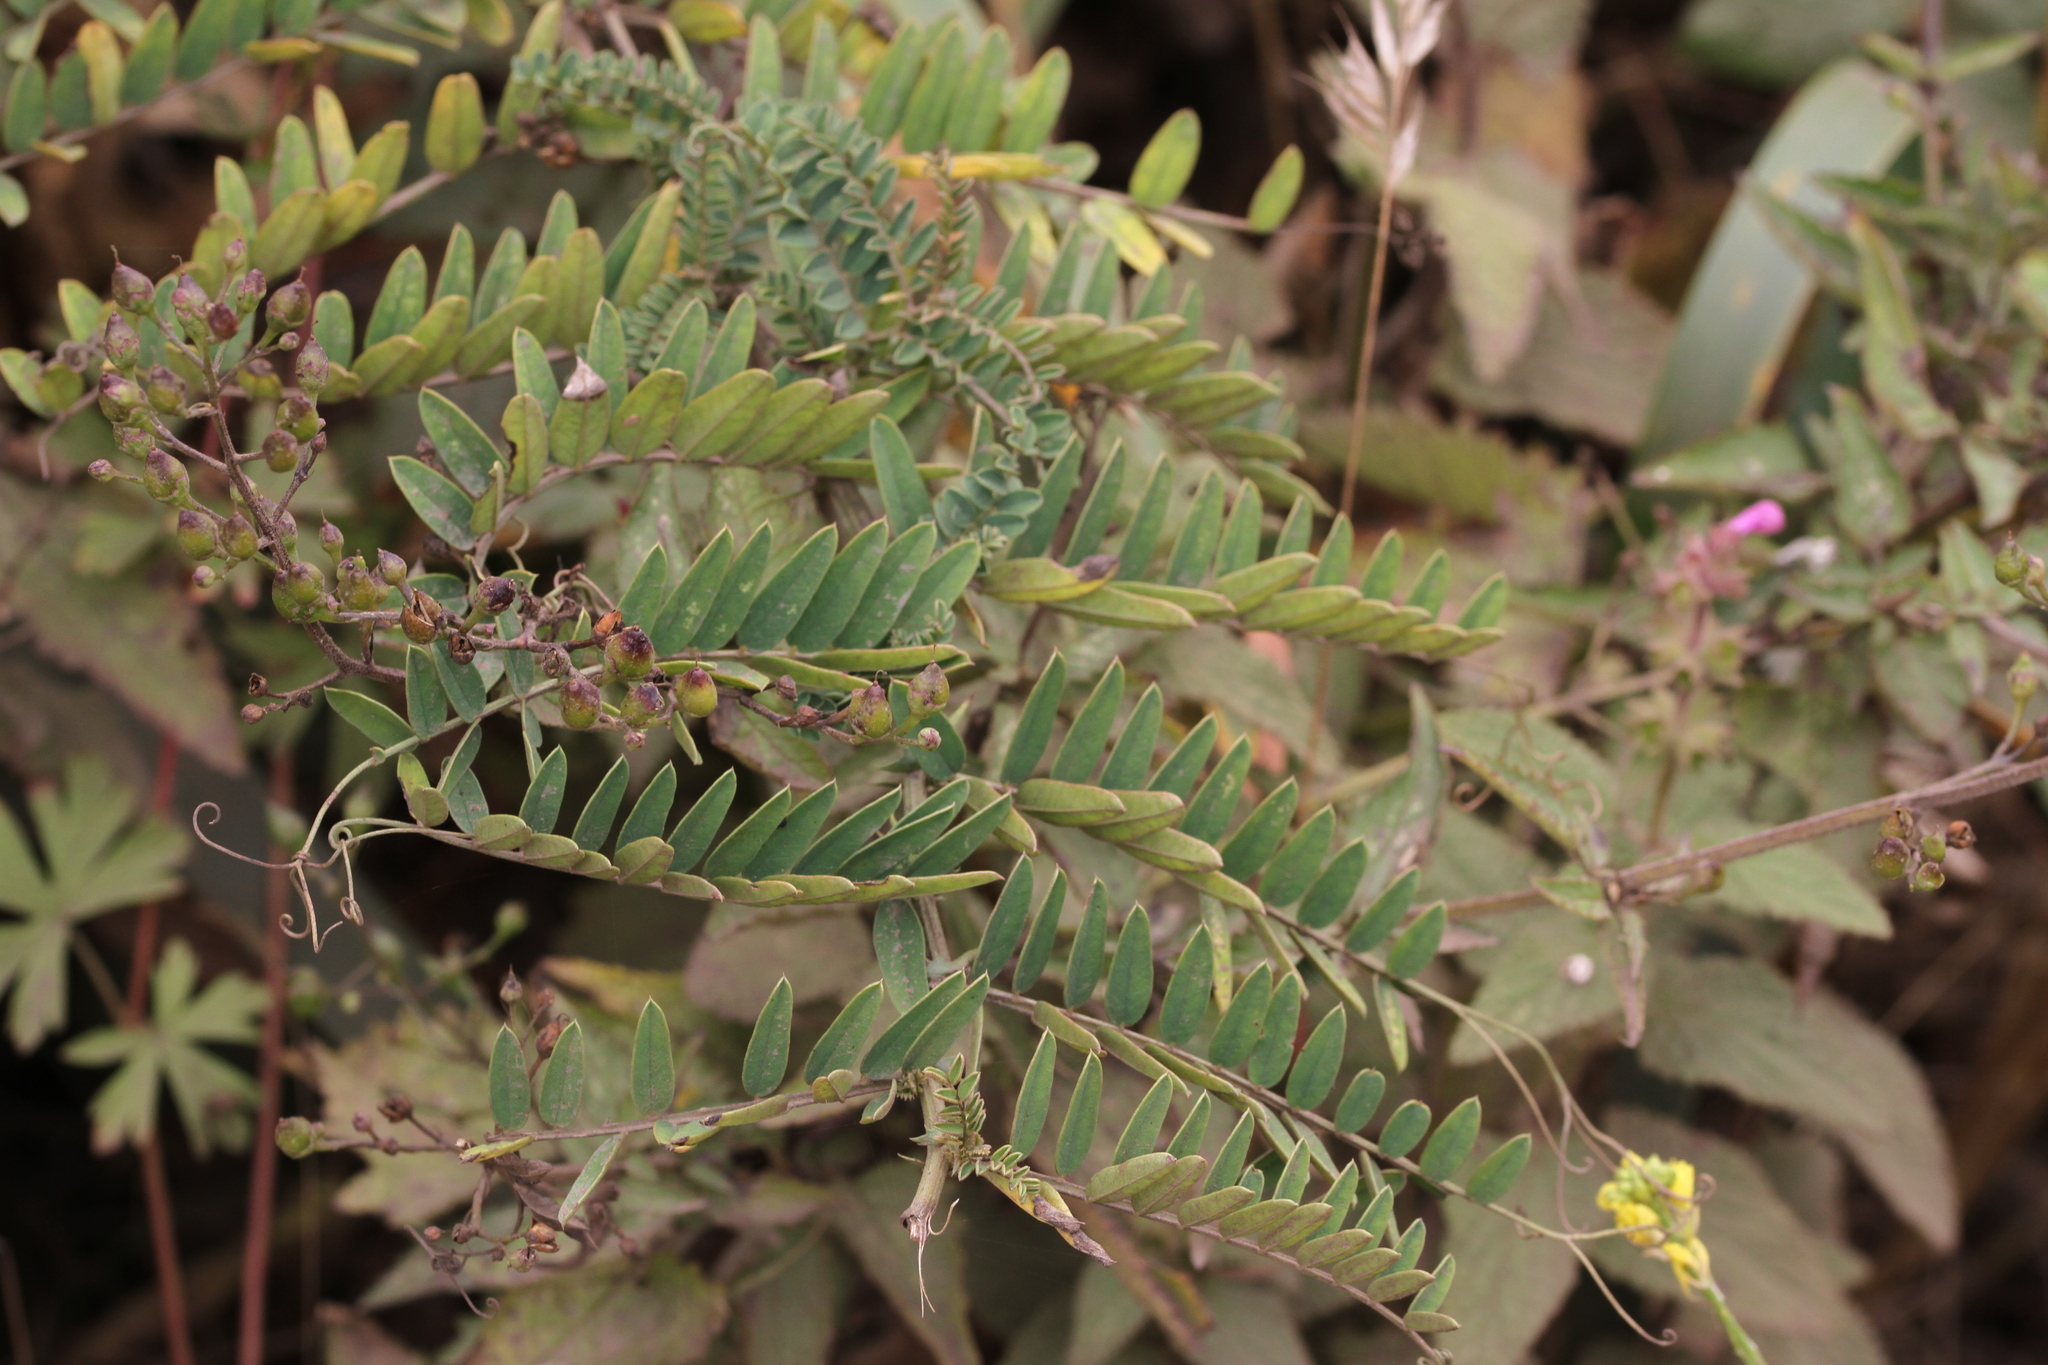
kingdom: Plantae
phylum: Tracheophyta
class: Magnoliopsida
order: Fabales
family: Fabaceae
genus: Vicia
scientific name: Vicia
